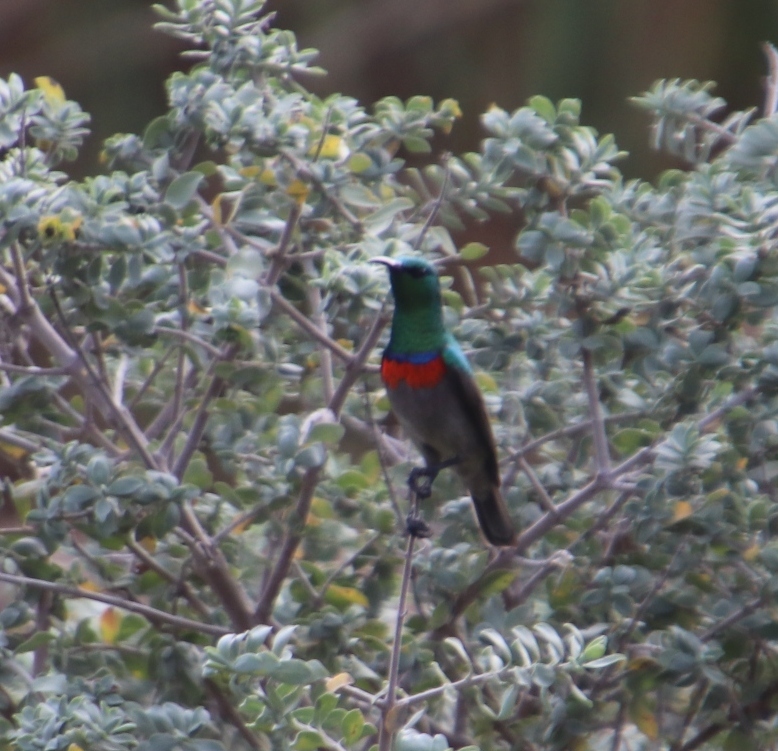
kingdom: Animalia
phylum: Chordata
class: Aves
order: Passeriformes
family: Nectariniidae
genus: Cinnyris
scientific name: Cinnyris chalybeus
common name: Southern double-collared sunbird
